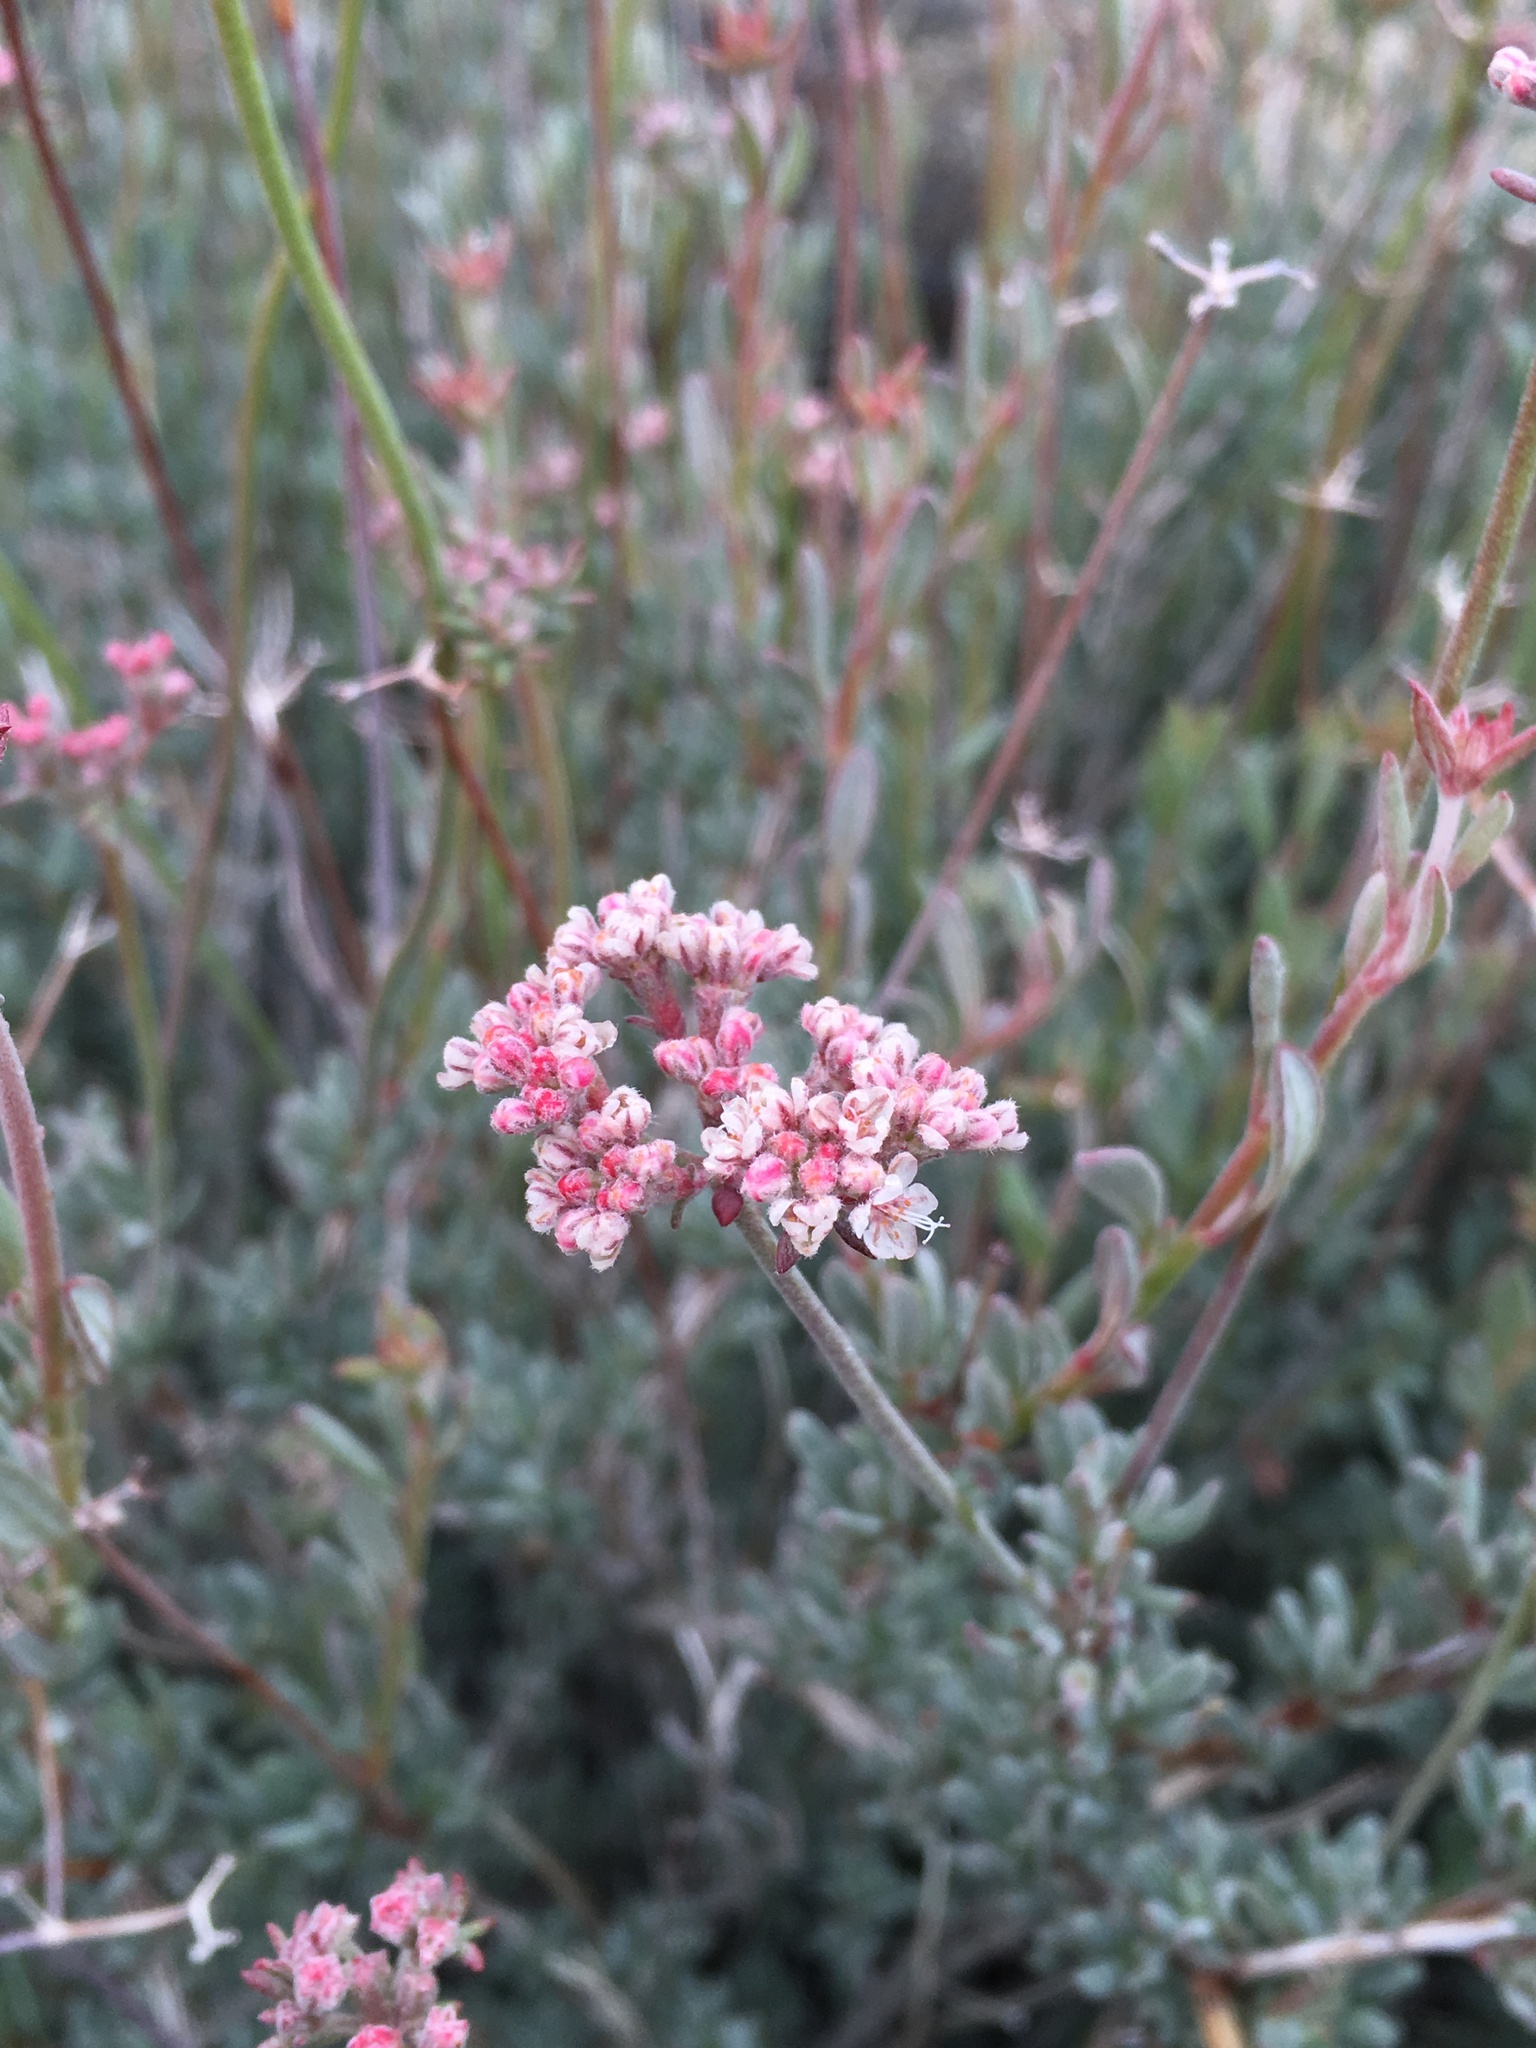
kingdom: Plantae
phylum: Tracheophyta
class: Magnoliopsida
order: Caryophyllales
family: Polygonaceae
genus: Eriogonum
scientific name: Eriogonum fasciculatum
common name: California wild buckwheat
